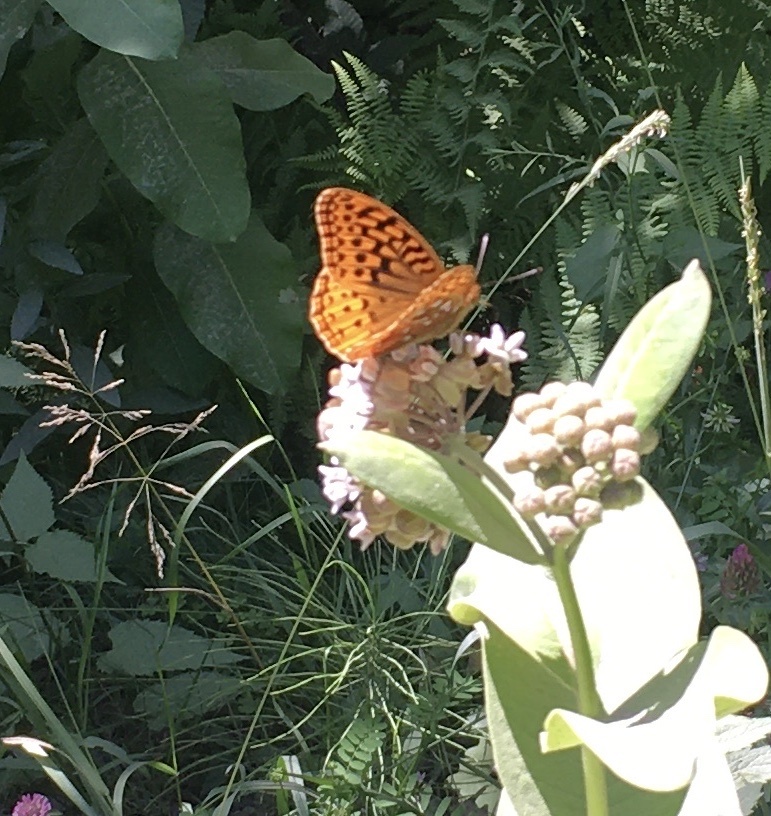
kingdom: Animalia
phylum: Arthropoda
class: Insecta
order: Lepidoptera
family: Nymphalidae
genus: Speyeria
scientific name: Speyeria cybele
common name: Great spangled fritillary
